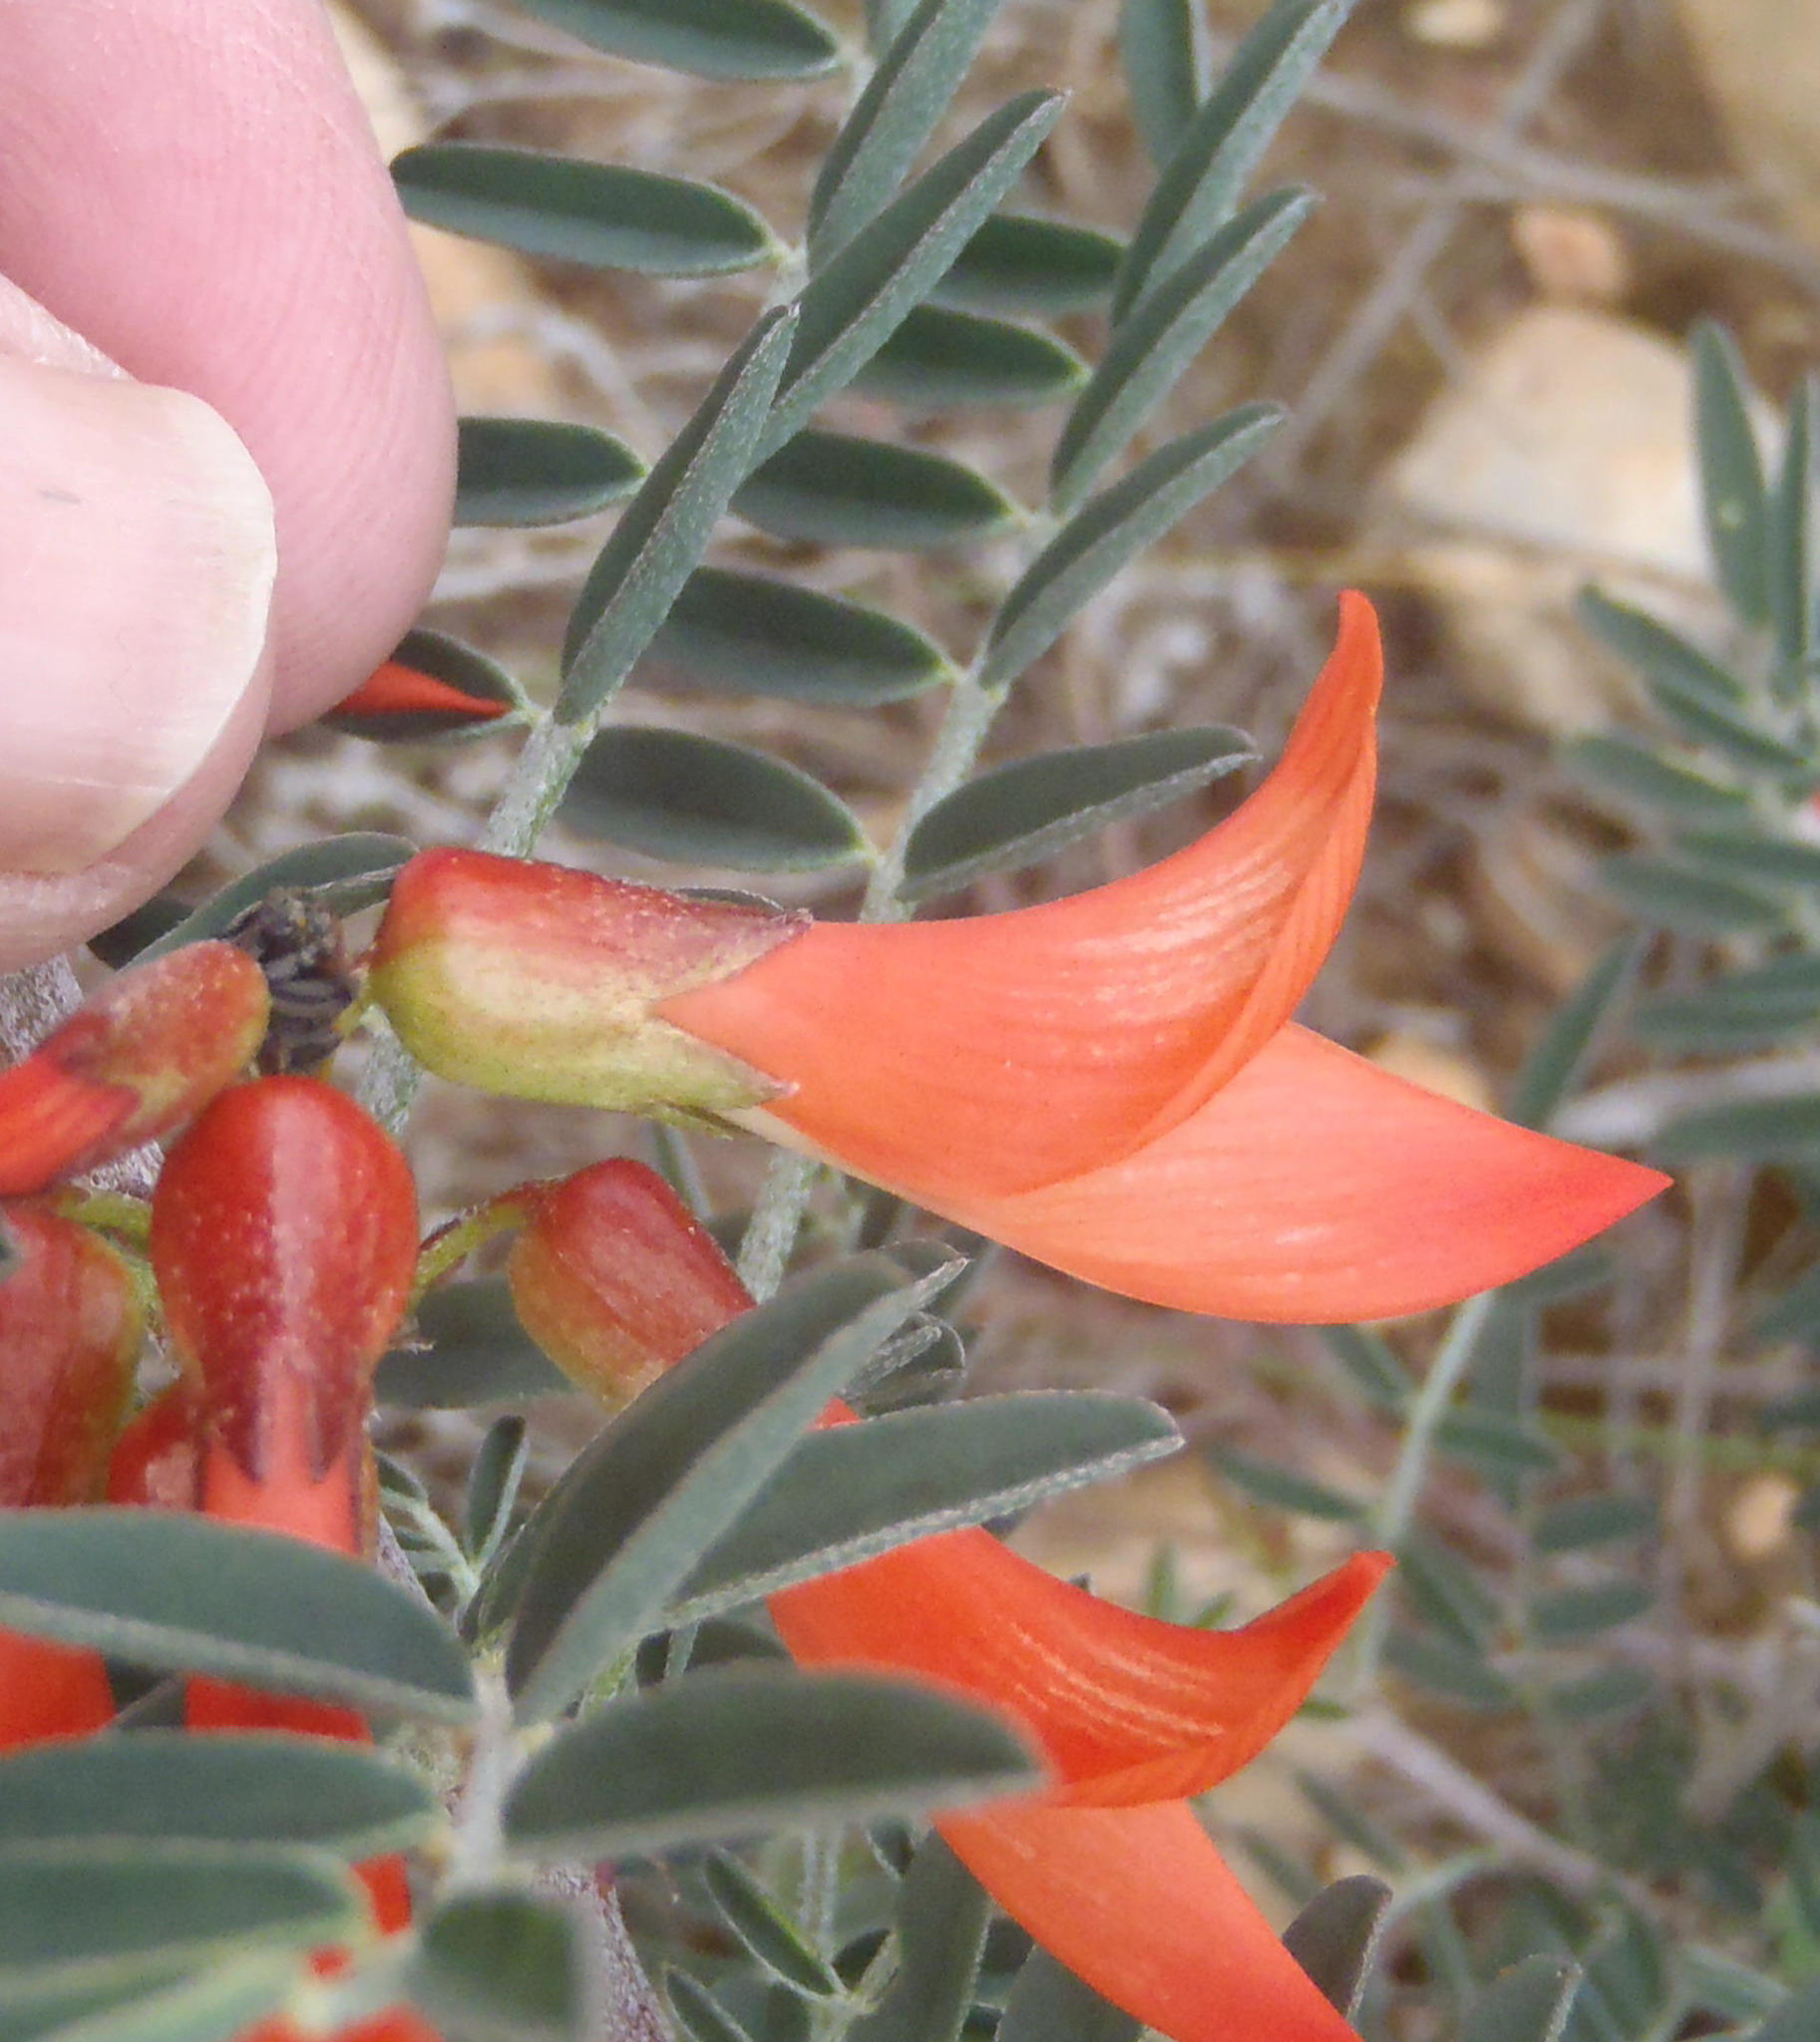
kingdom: Plantae
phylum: Tracheophyta
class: Magnoliopsida
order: Fabales
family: Fabaceae
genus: Lessertia
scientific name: Lessertia frutescens
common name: Balloon-pea
